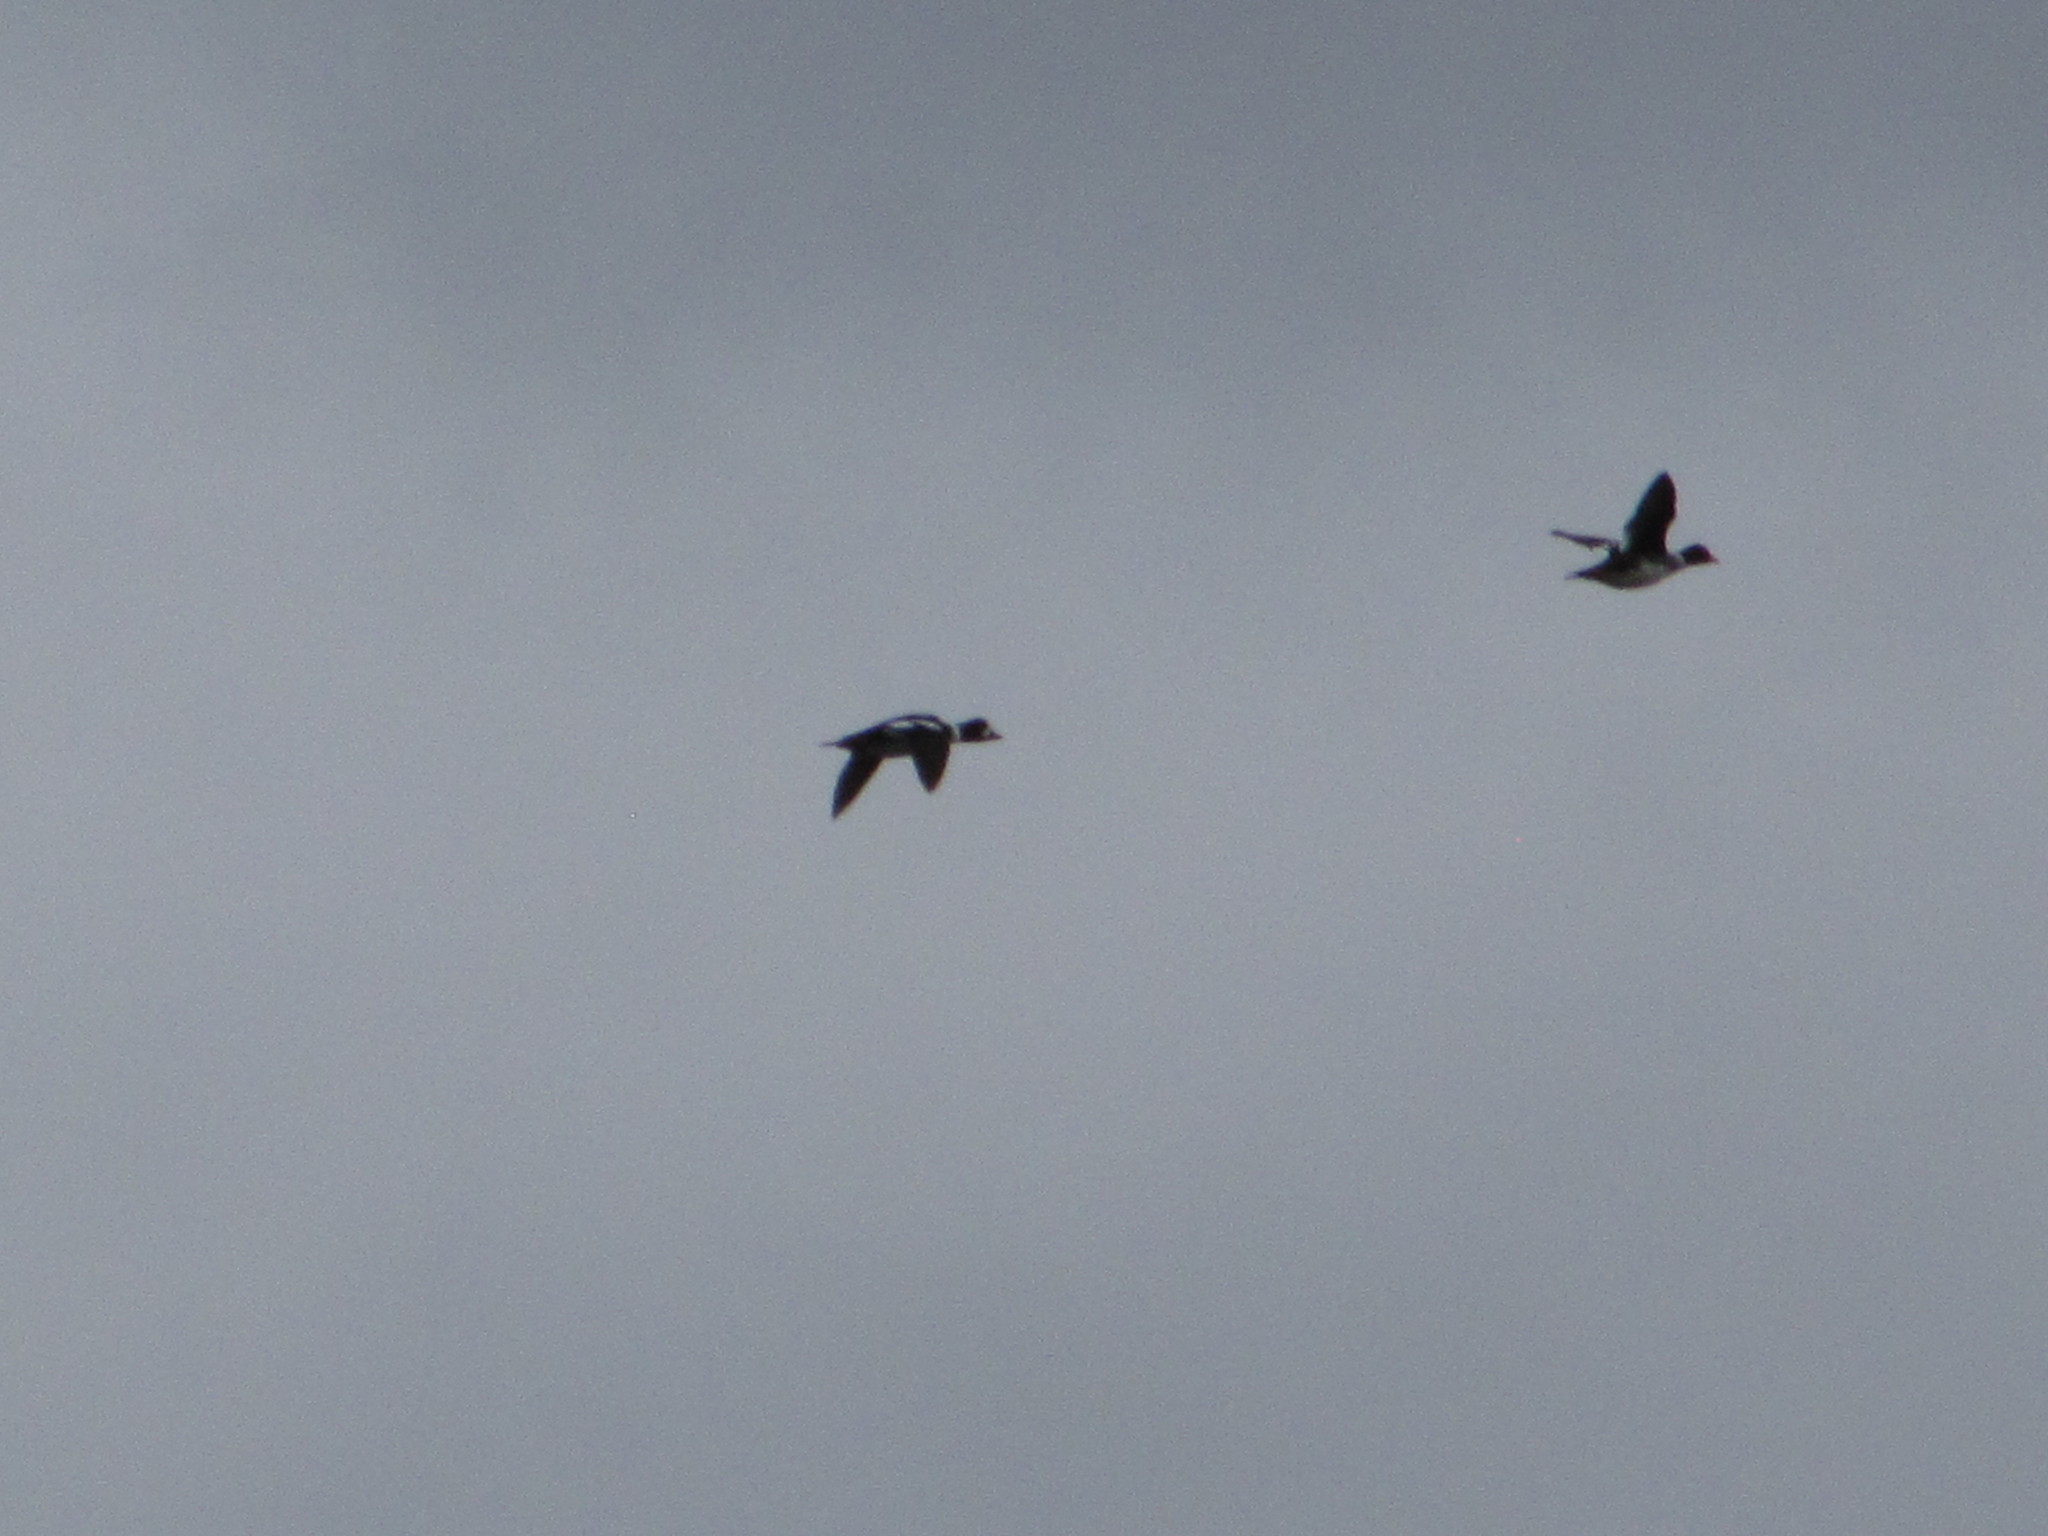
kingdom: Animalia
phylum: Chordata
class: Aves
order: Anseriformes
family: Anatidae
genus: Bucephala
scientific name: Bucephala islandica
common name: Barrow's goldeneye
